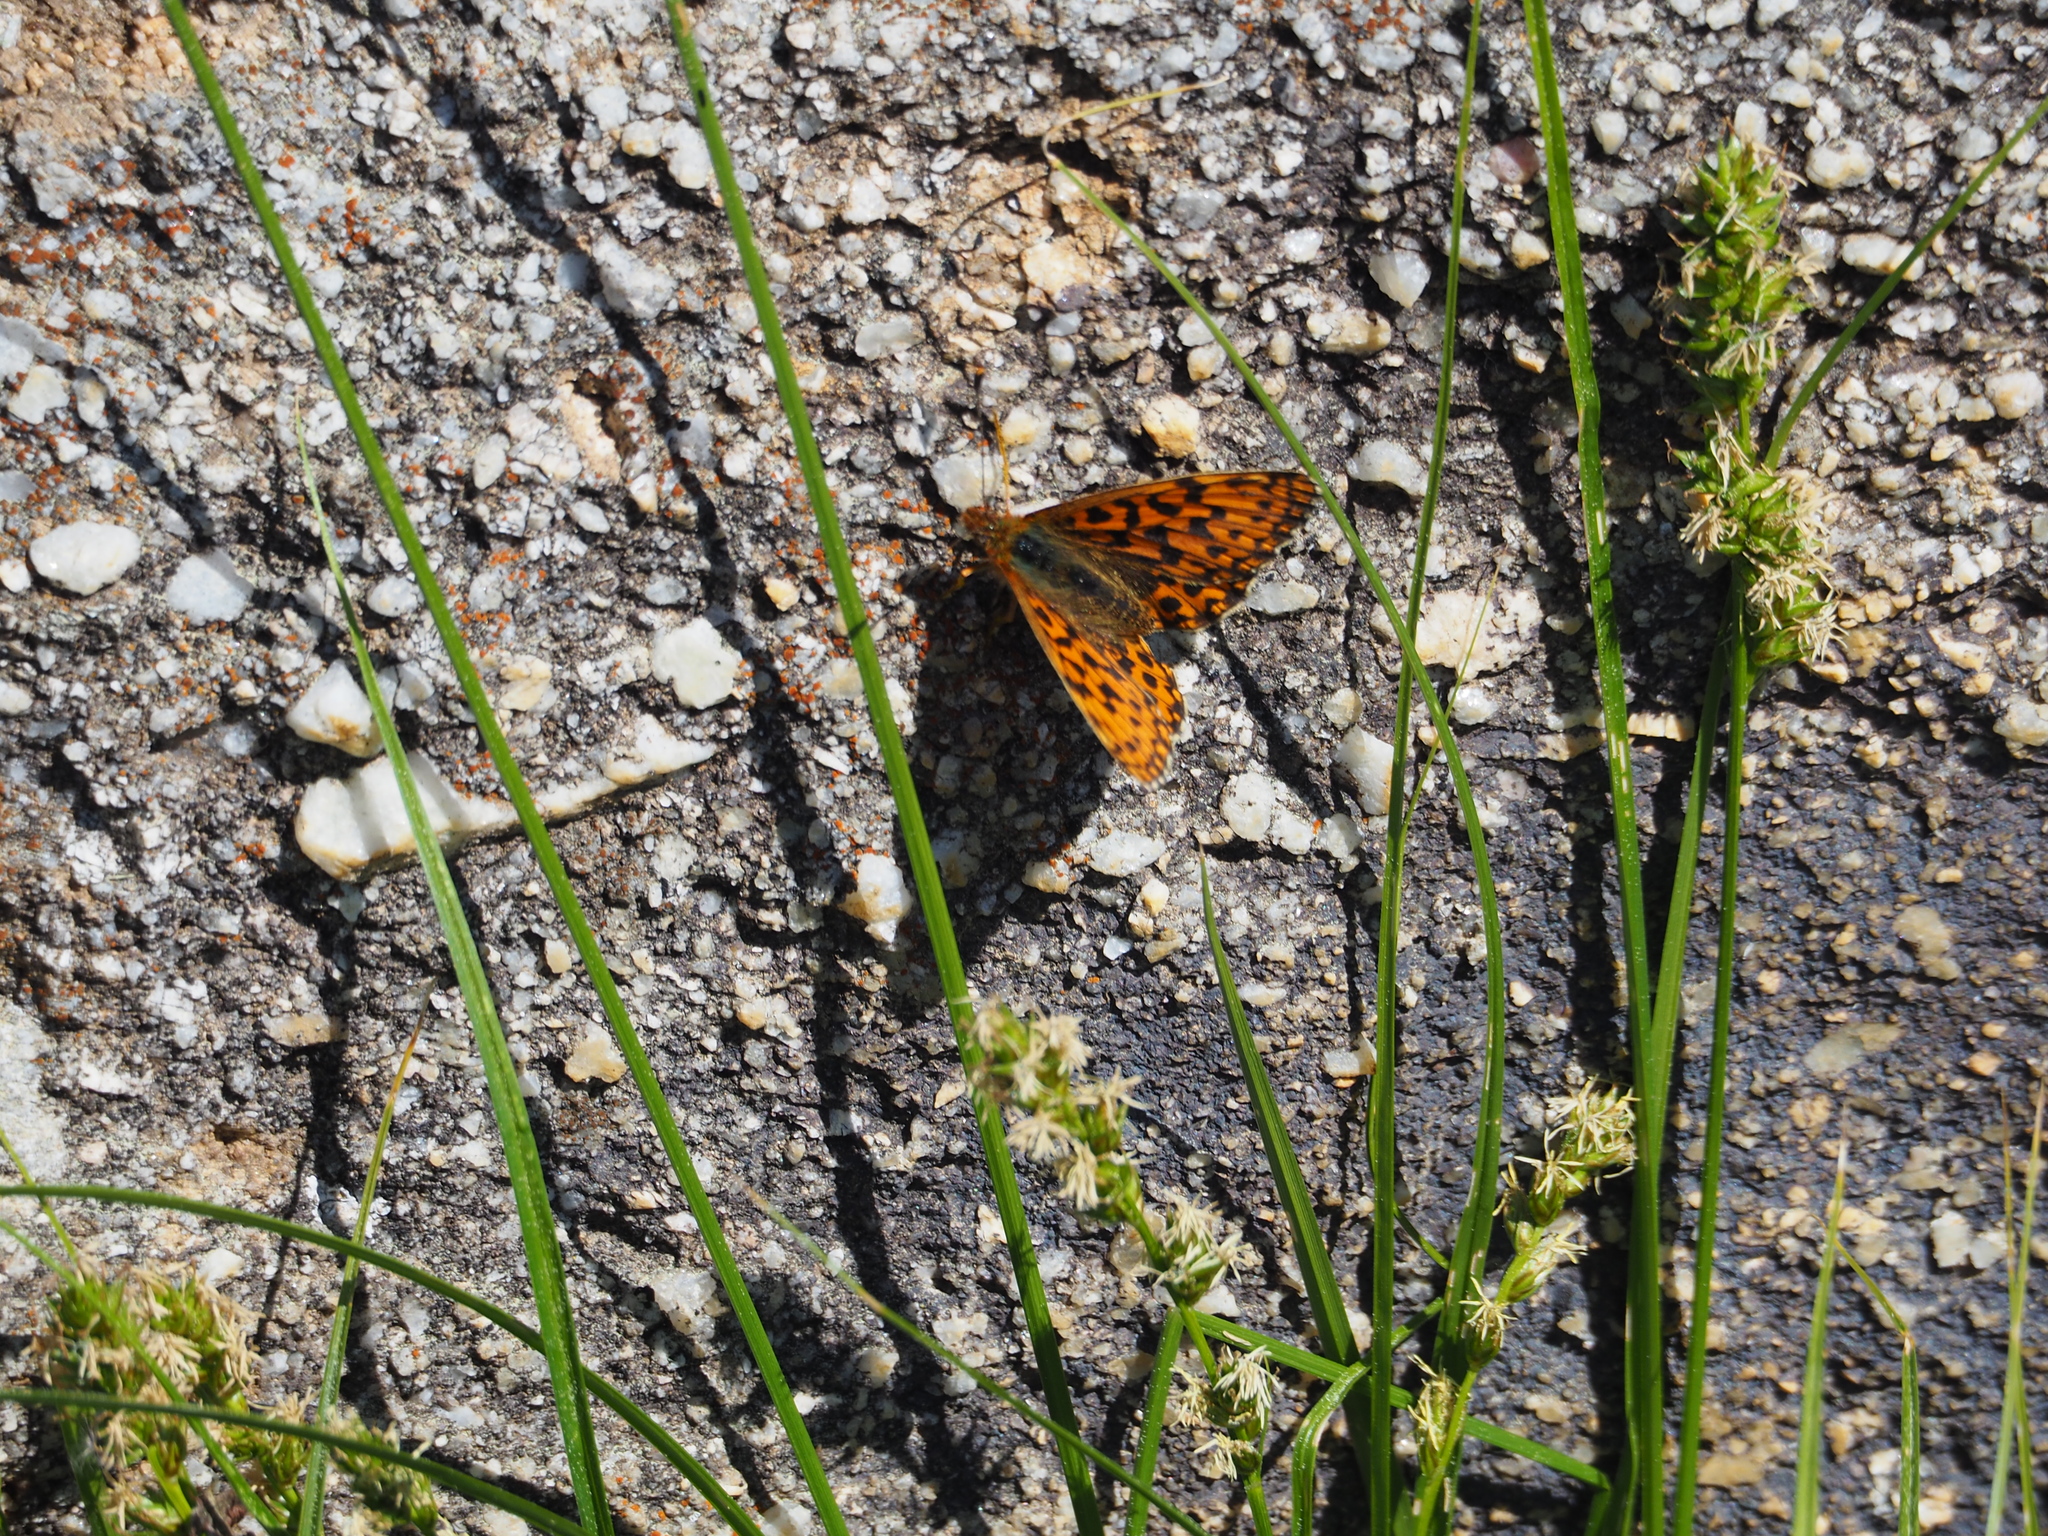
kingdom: Animalia
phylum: Arthropoda
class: Insecta
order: Lepidoptera
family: Nymphalidae
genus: Boloria
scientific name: Boloria dia
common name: Weaver's fritillary
